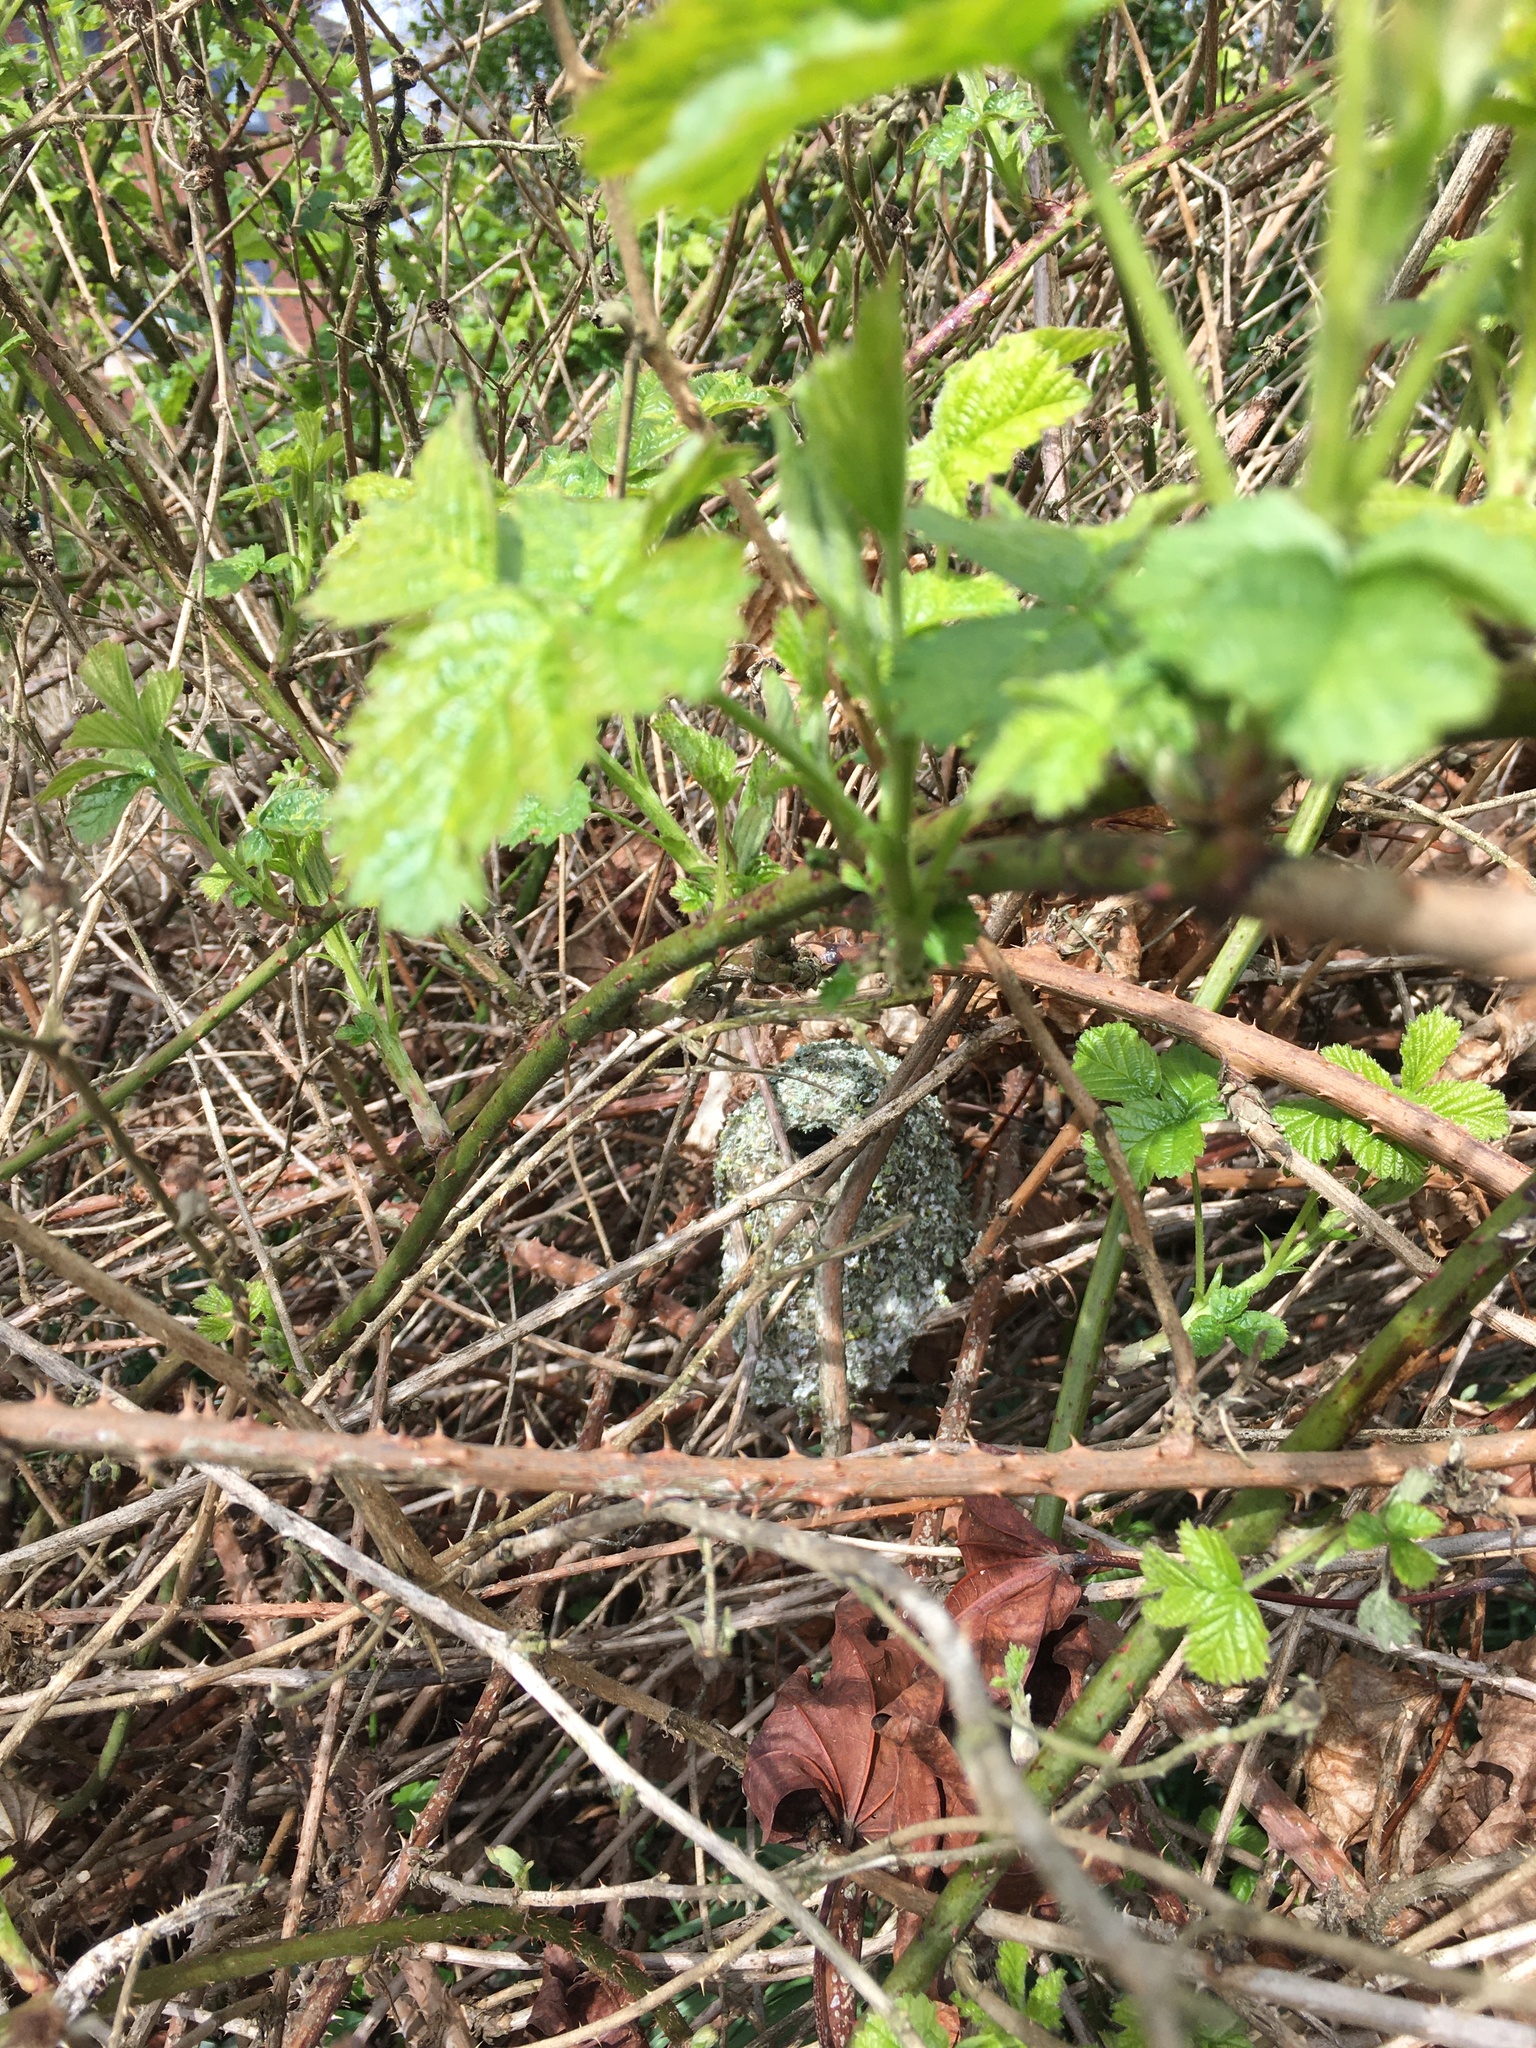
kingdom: Animalia
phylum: Chordata
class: Aves
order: Passeriformes
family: Aegithalidae
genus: Aegithalos
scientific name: Aegithalos caudatus
